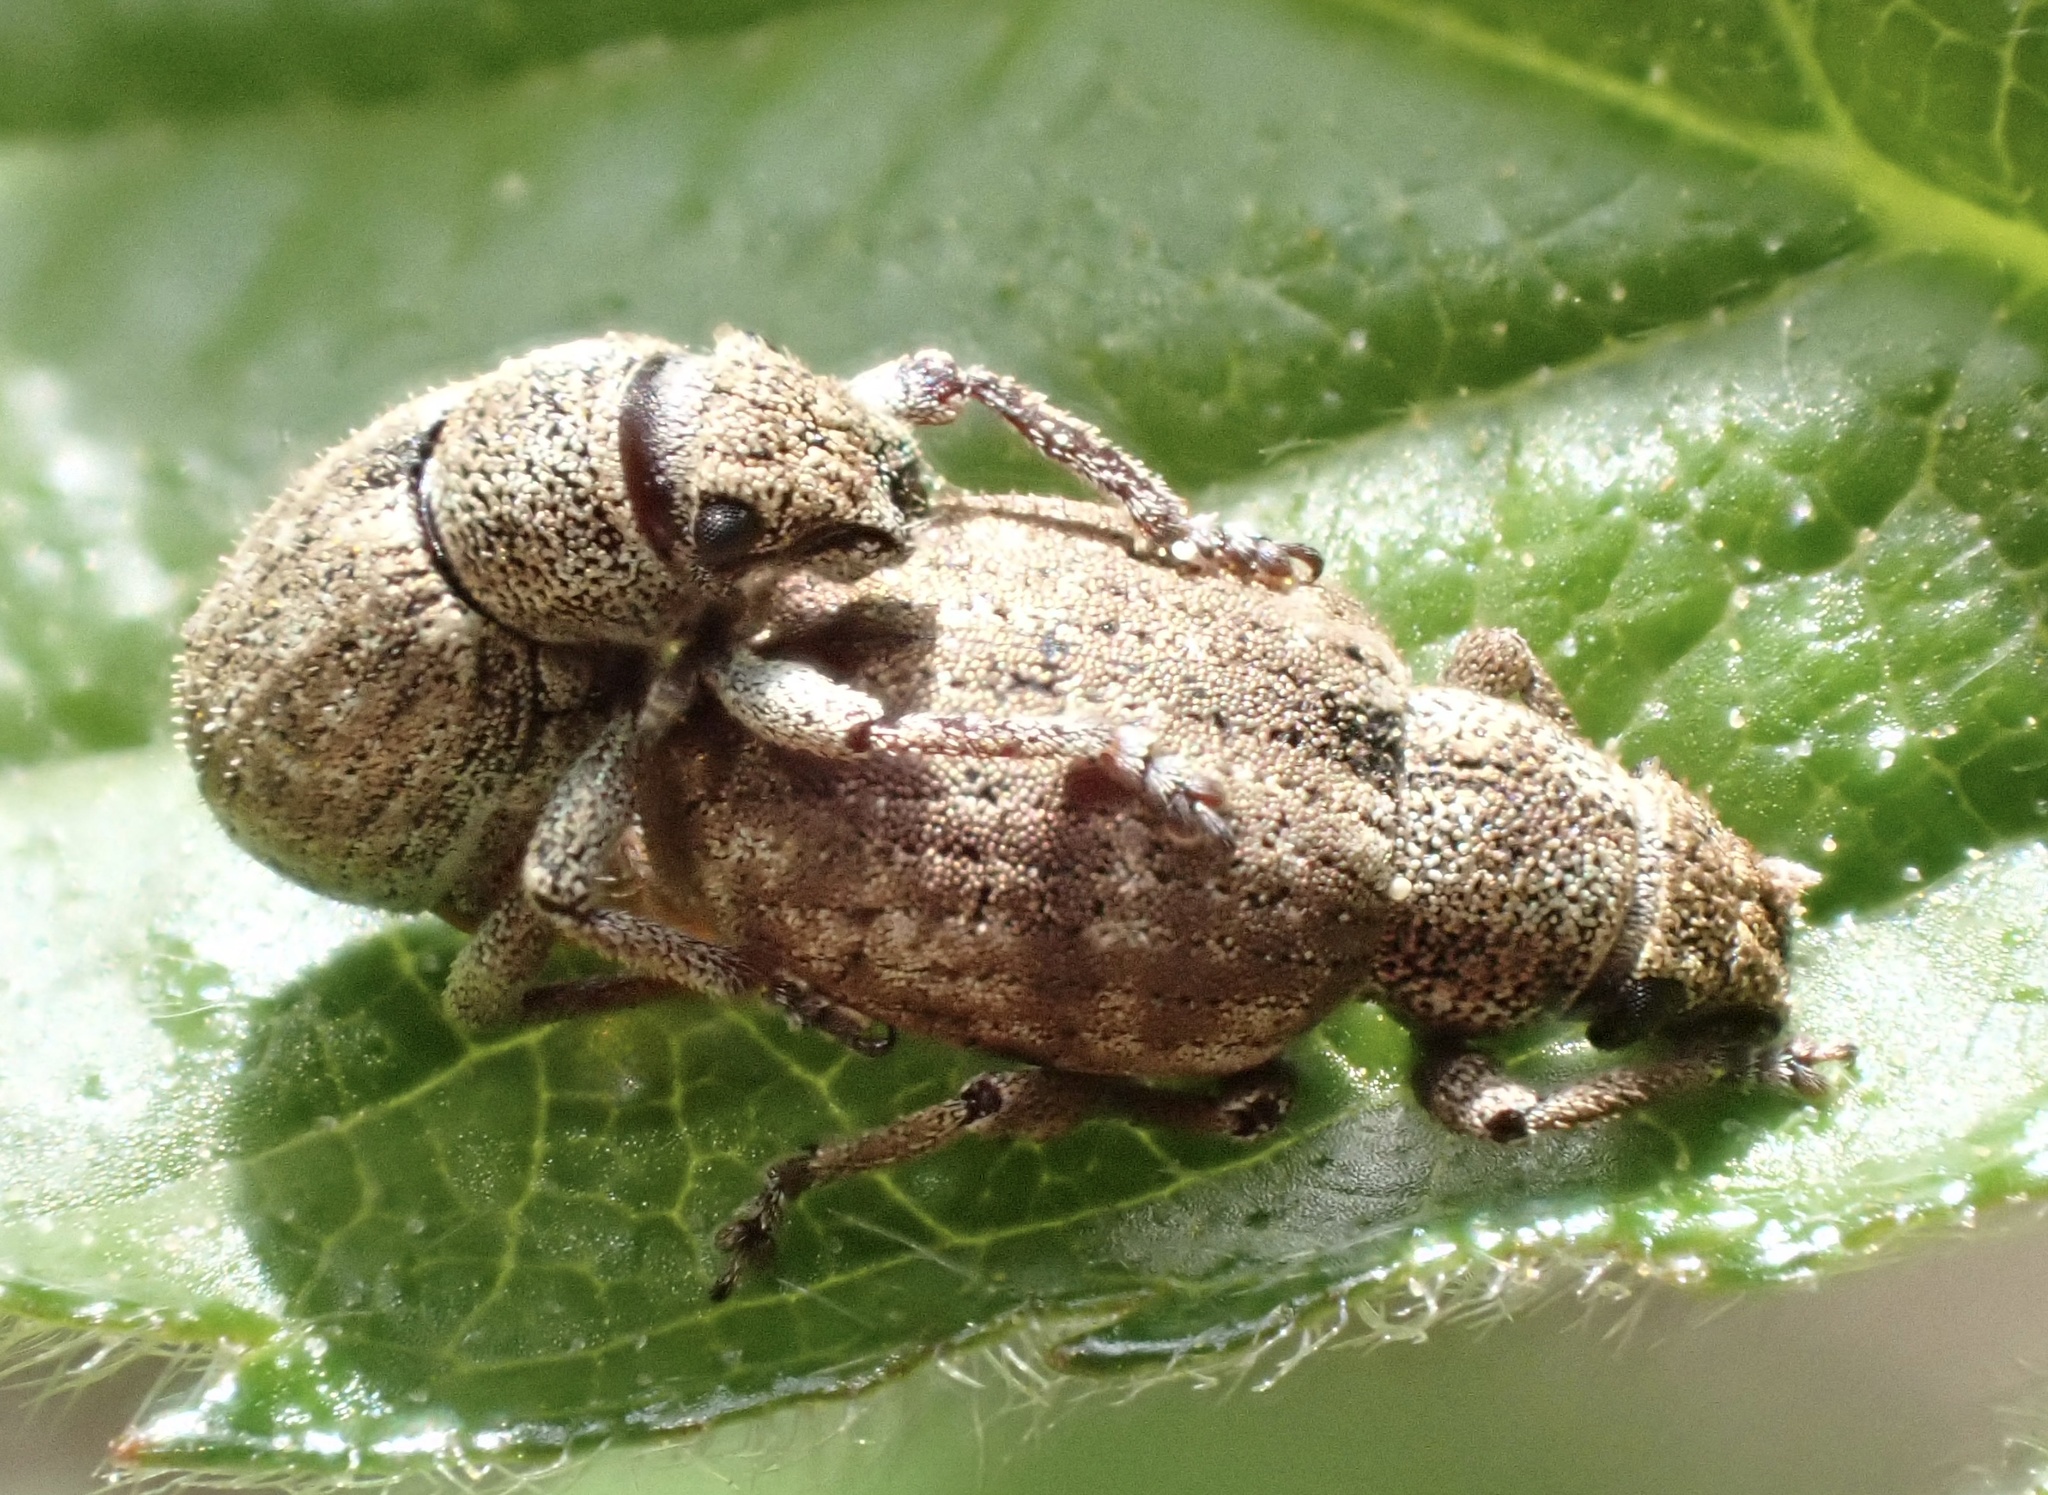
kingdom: Animalia
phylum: Arthropoda
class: Insecta
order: Coleoptera
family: Curculionidae
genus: Strophosoma
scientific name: Strophosoma capitatum
